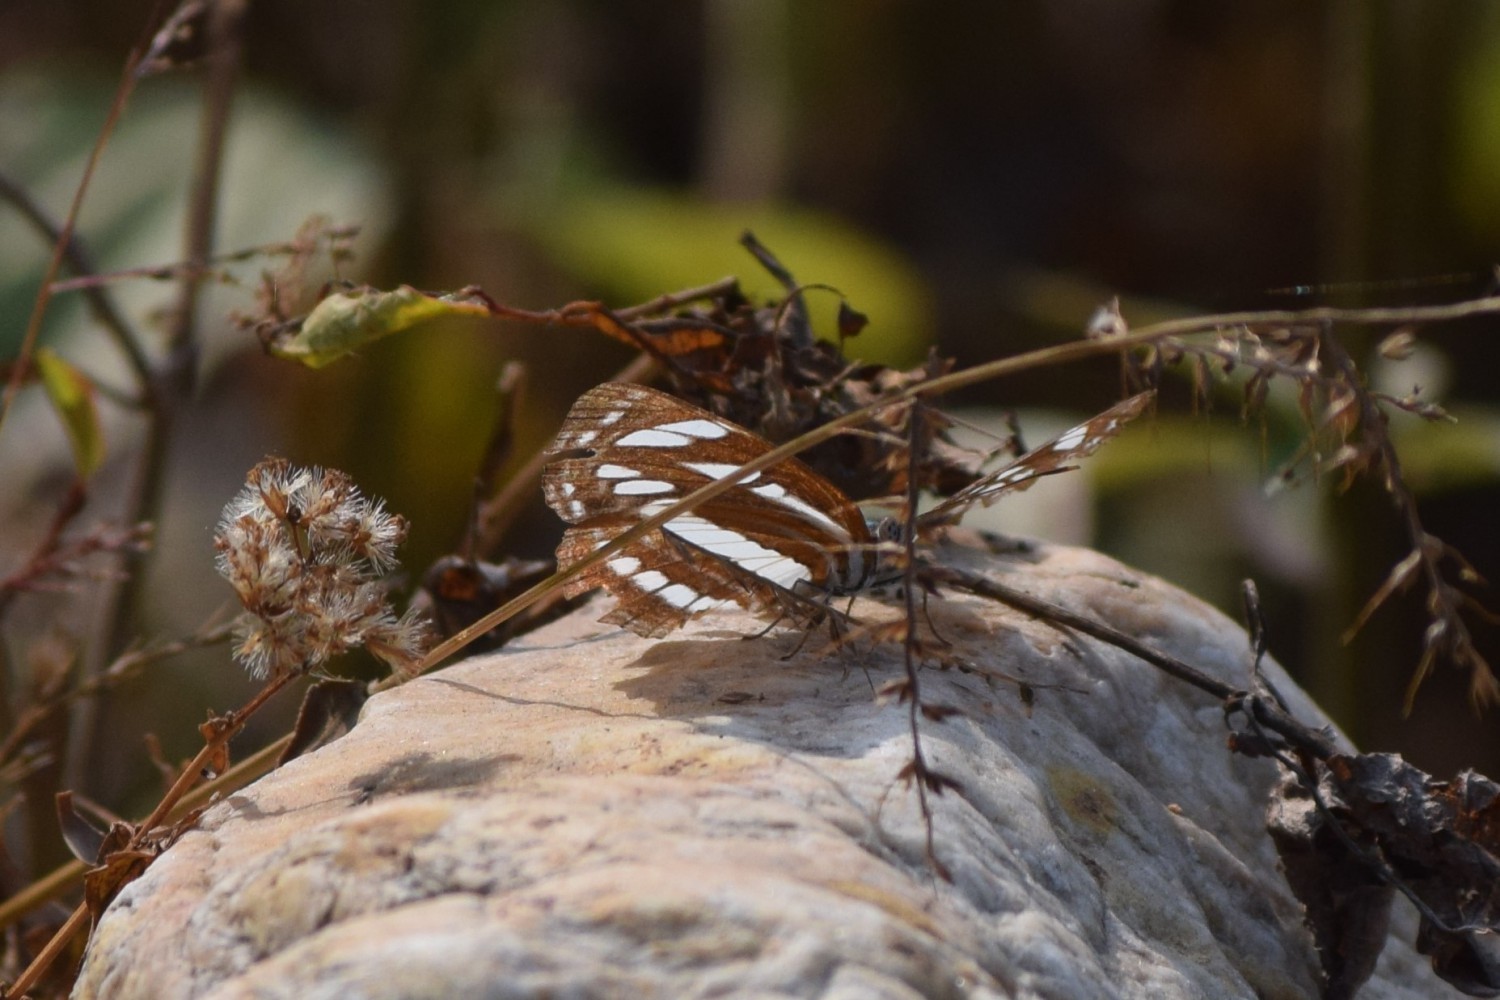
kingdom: Animalia
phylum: Arthropoda
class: Insecta
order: Lepidoptera
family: Nymphalidae
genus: Neptis
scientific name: Neptis hylas
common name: Common sailer
